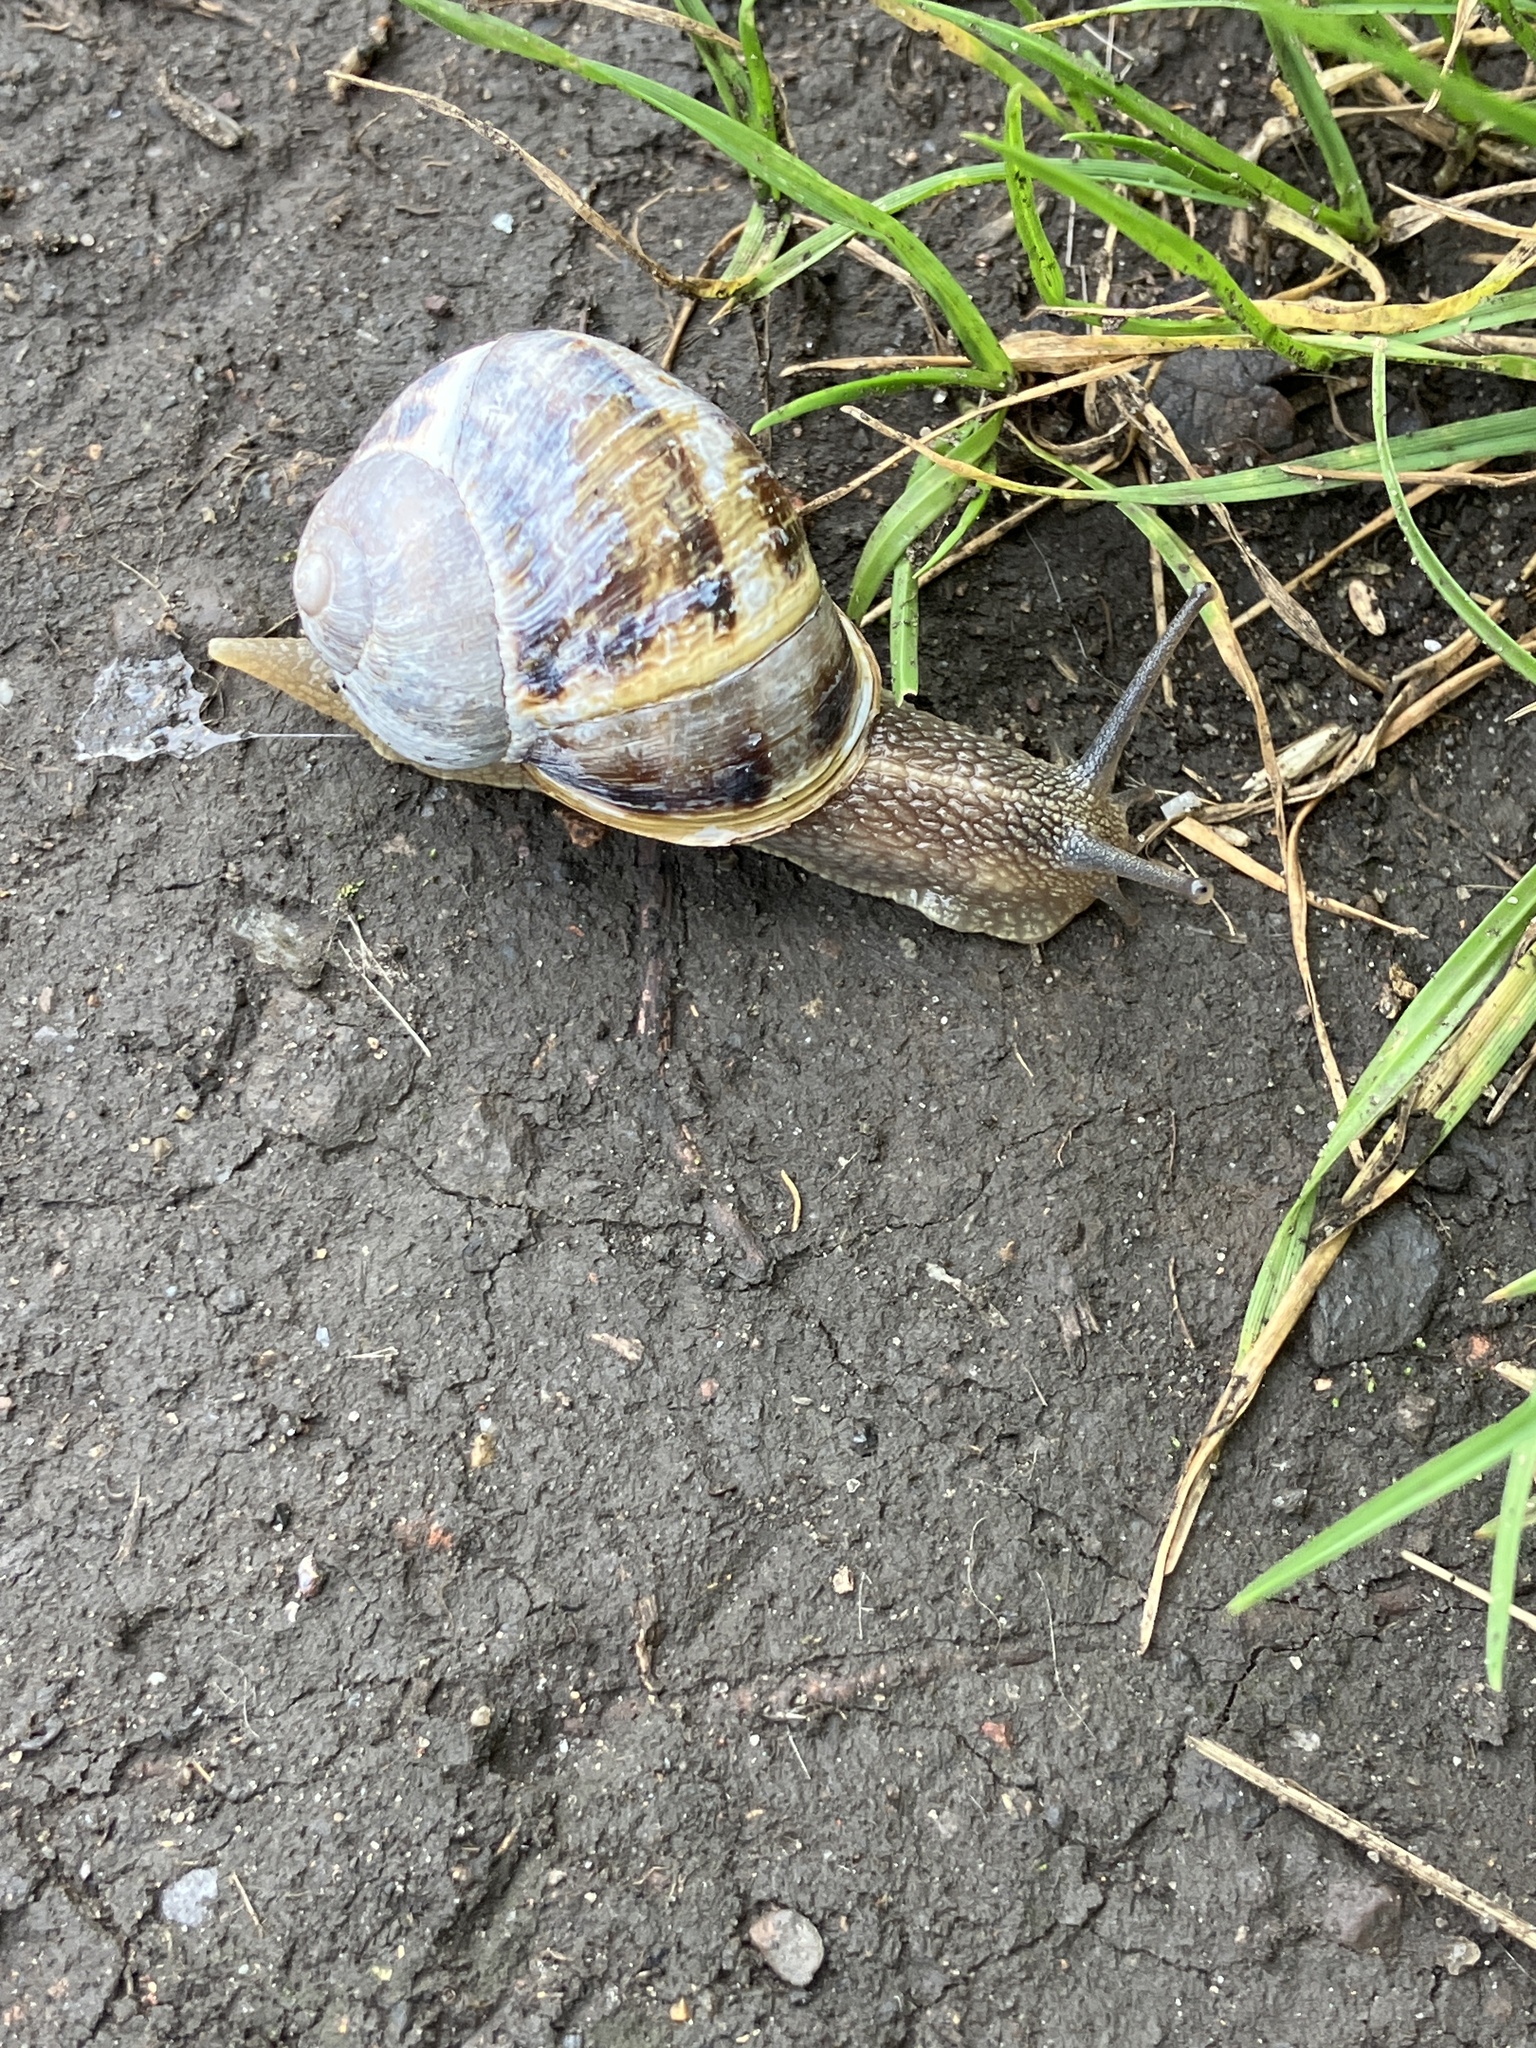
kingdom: Animalia
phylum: Mollusca
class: Gastropoda
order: Stylommatophora
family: Helicidae
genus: Cornu
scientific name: Cornu aspersum
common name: Brown garden snail
